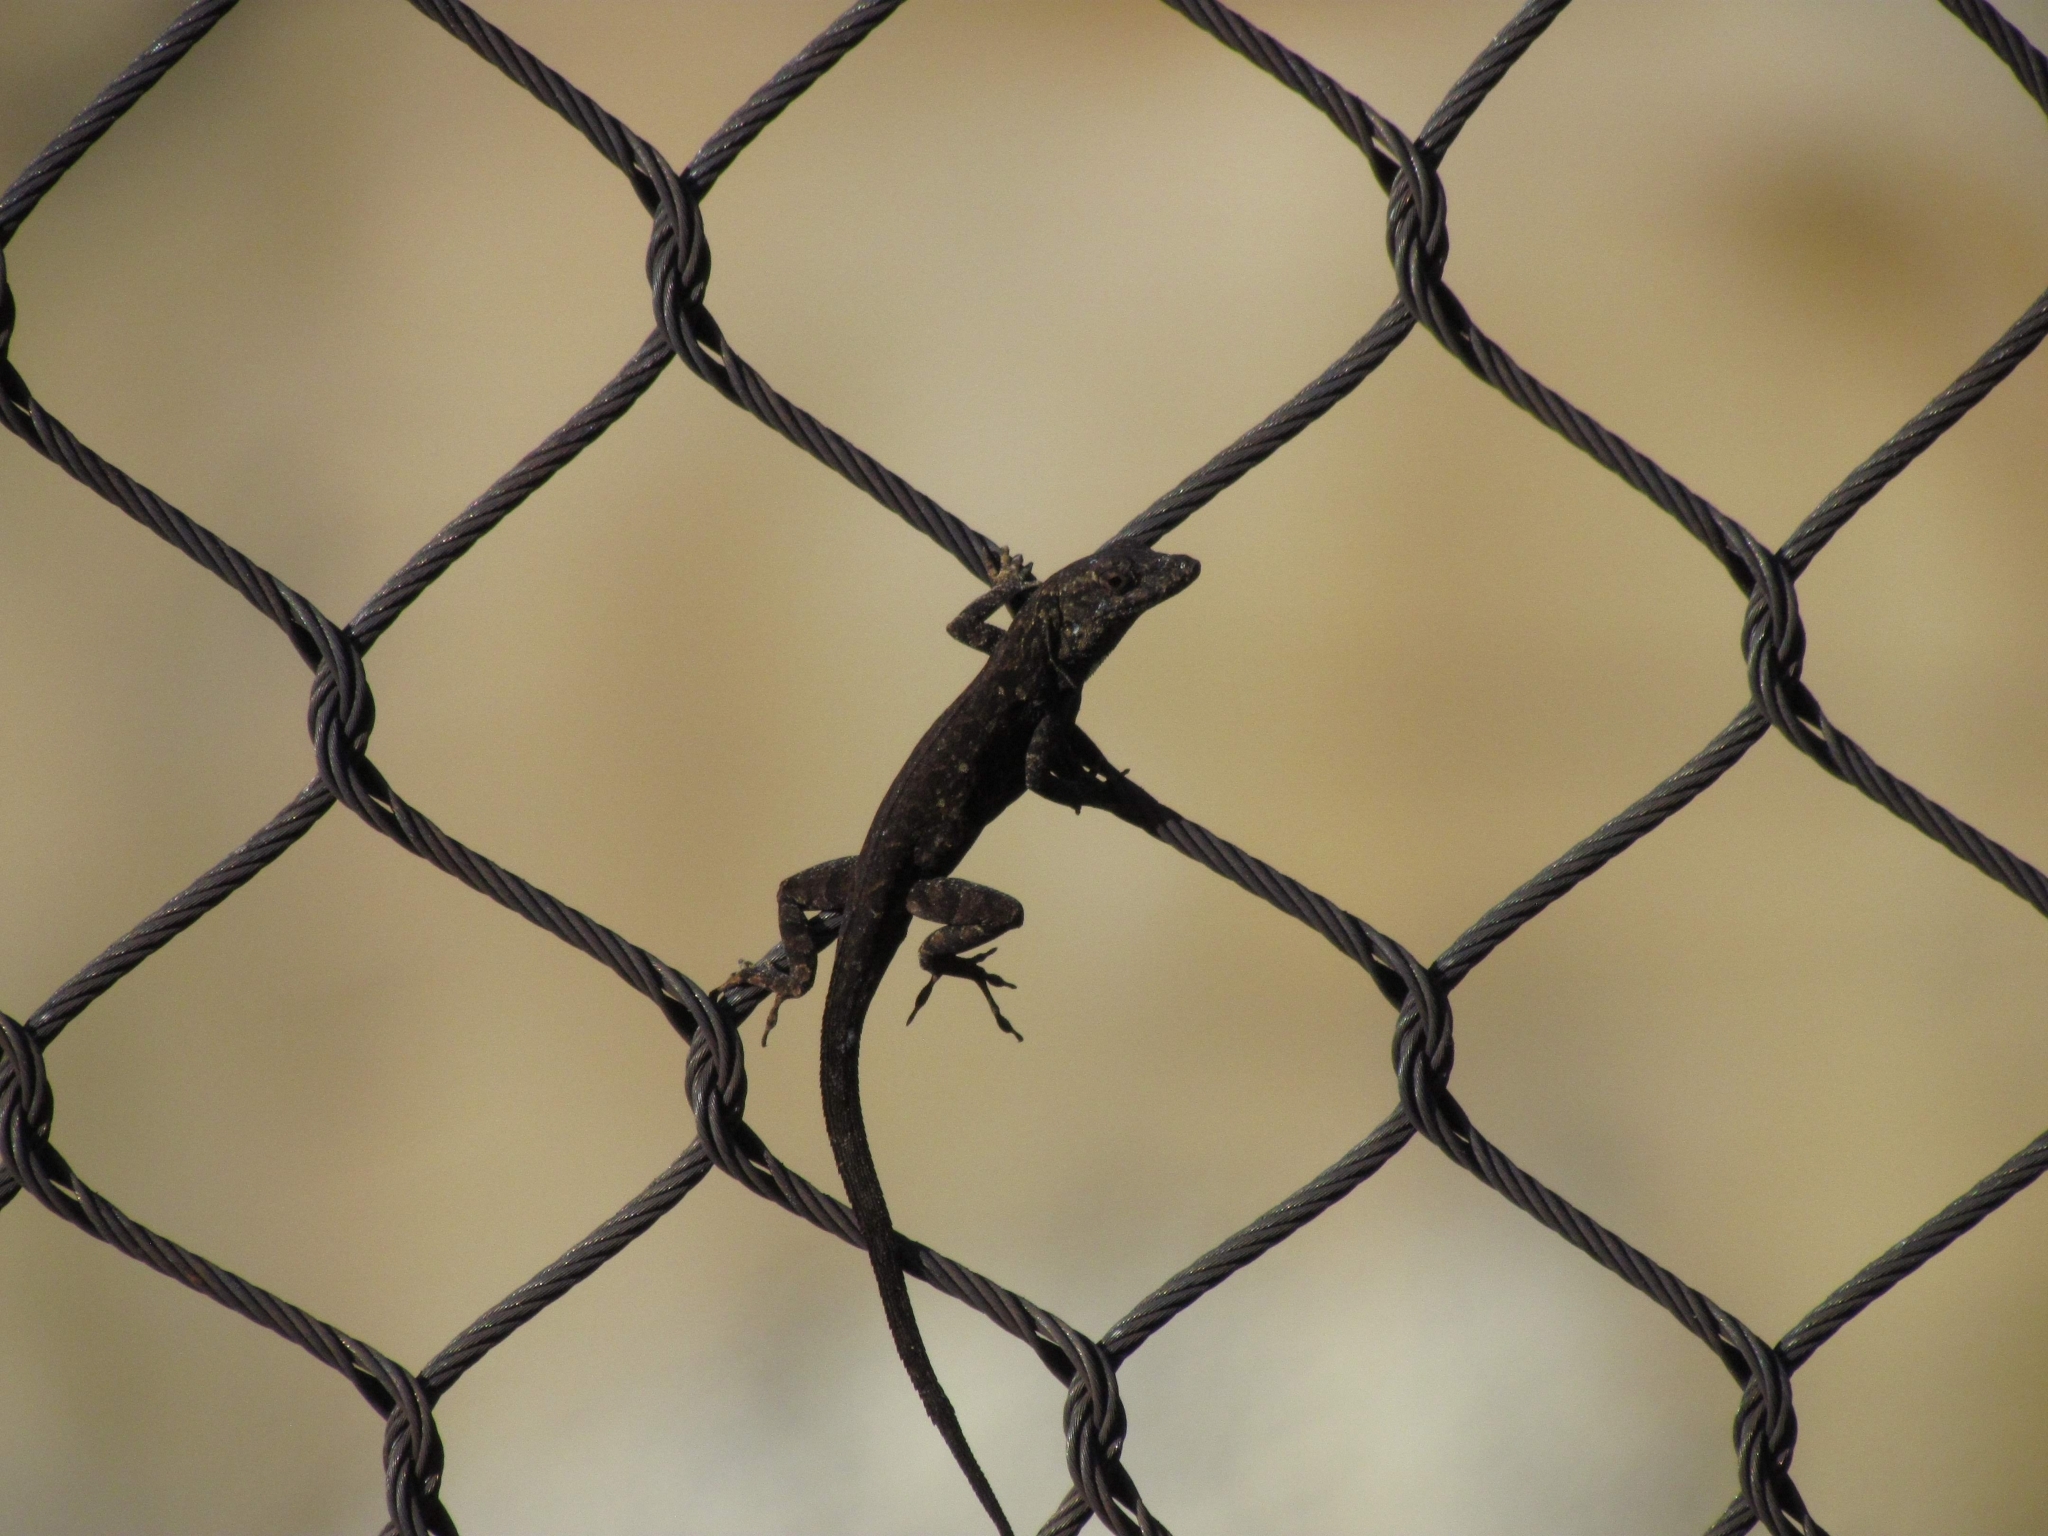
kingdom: Animalia
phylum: Chordata
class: Squamata
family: Dactyloidae
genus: Anolis
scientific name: Anolis sagrei
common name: Brown anole
